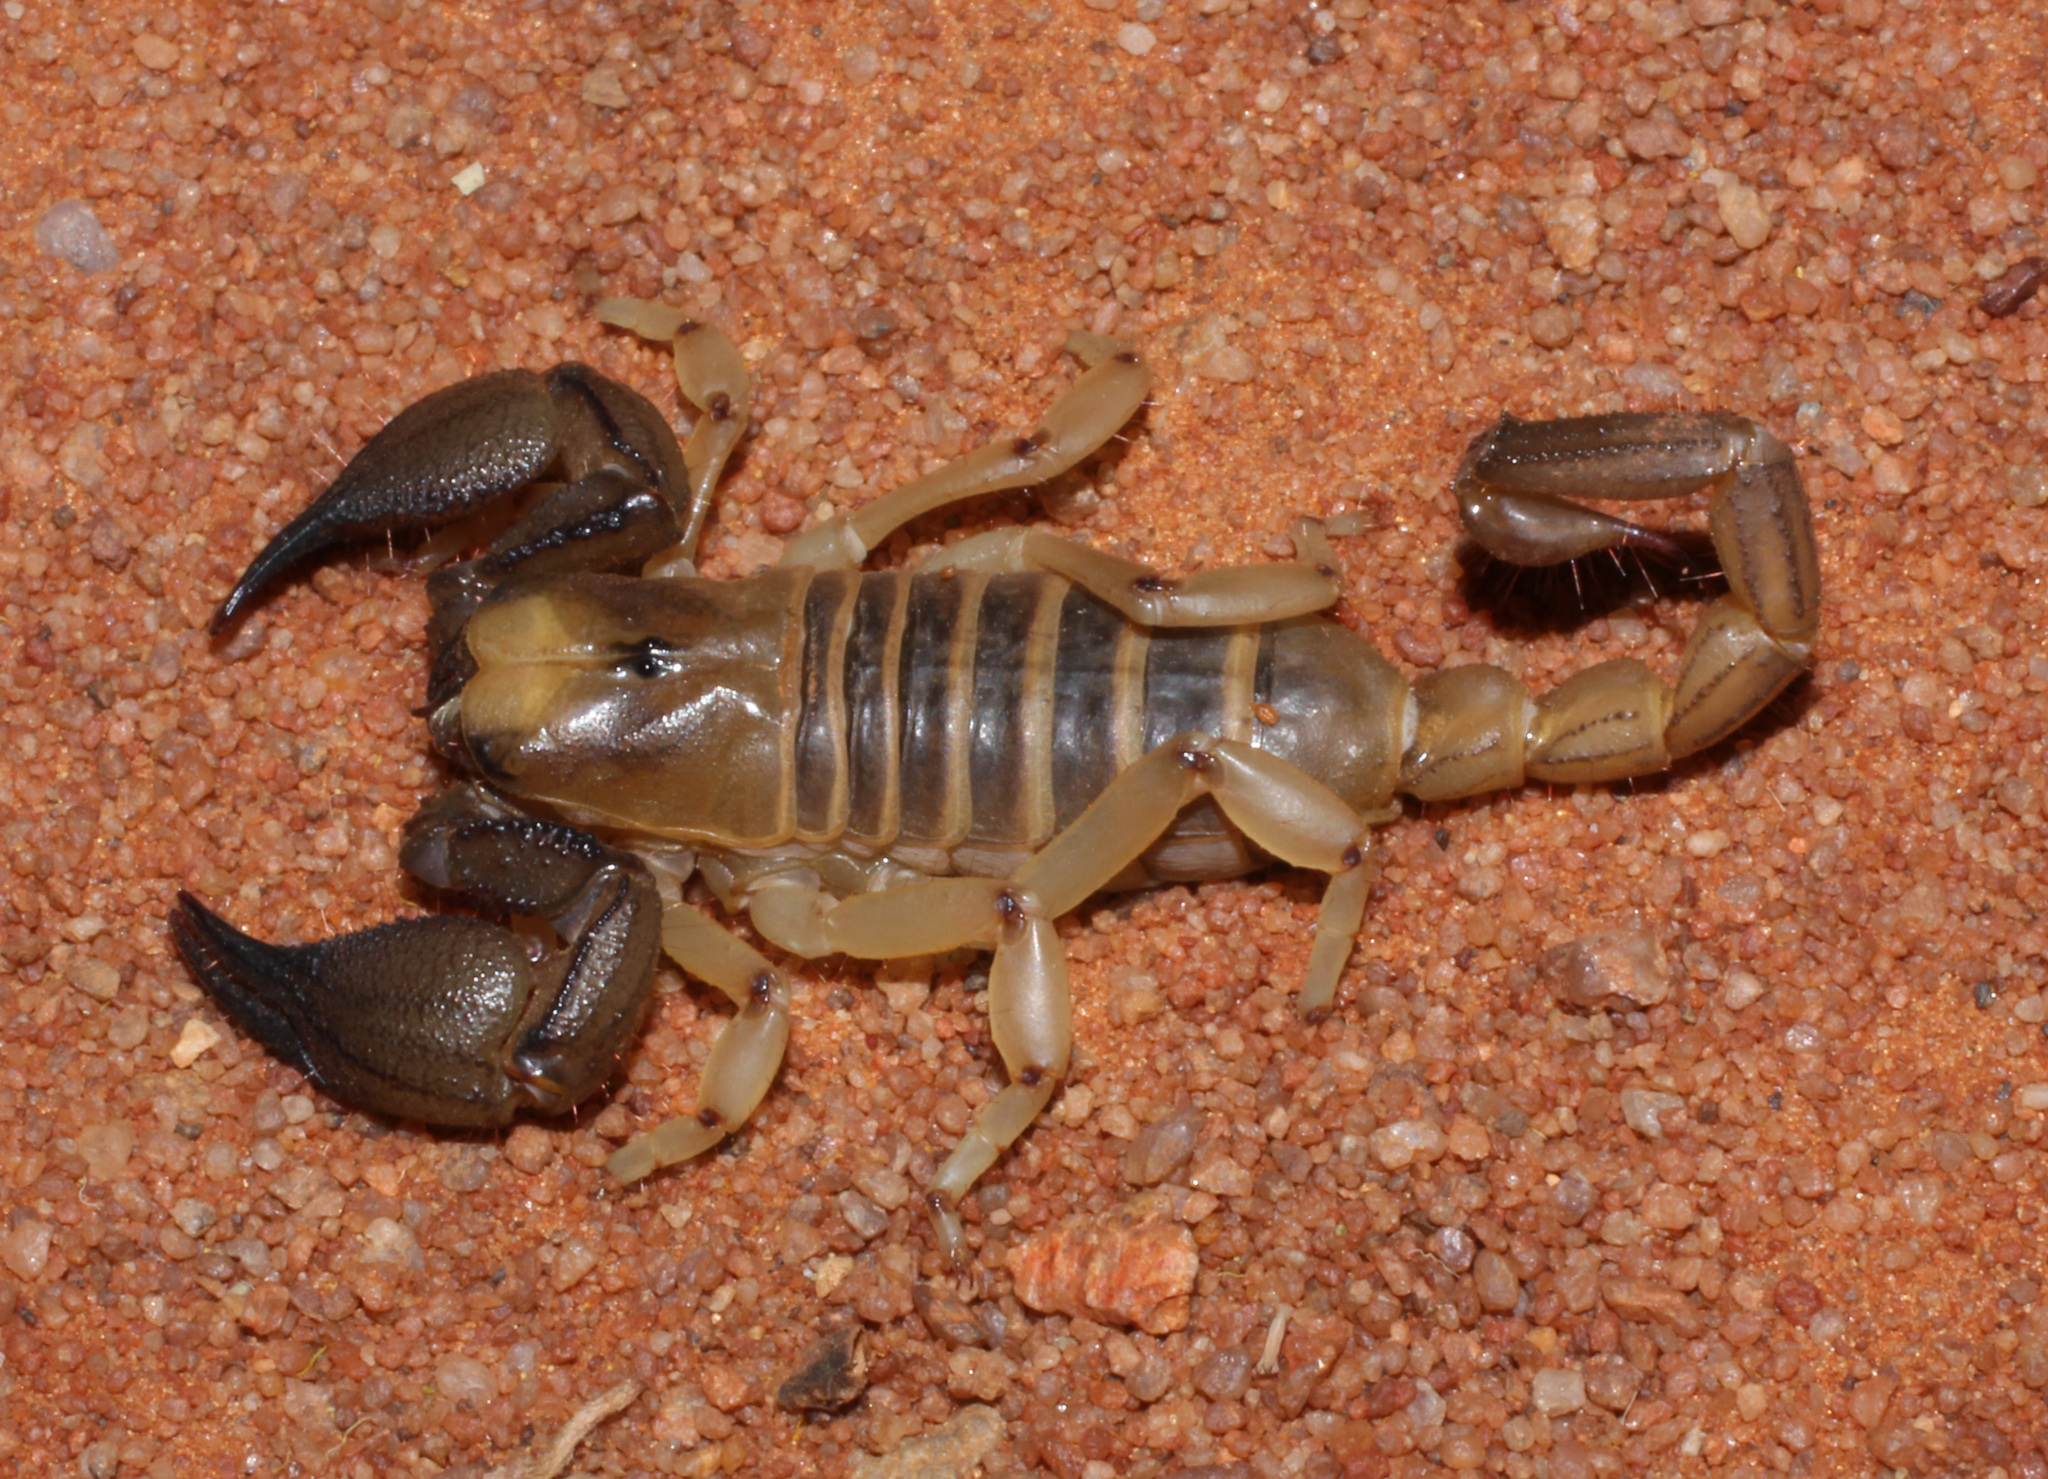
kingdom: Animalia
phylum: Arthropoda
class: Arachnida
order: Scorpiones
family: Scorpionidae
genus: Opistophthalmus
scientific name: Opistophthalmus fitzsimonsi
